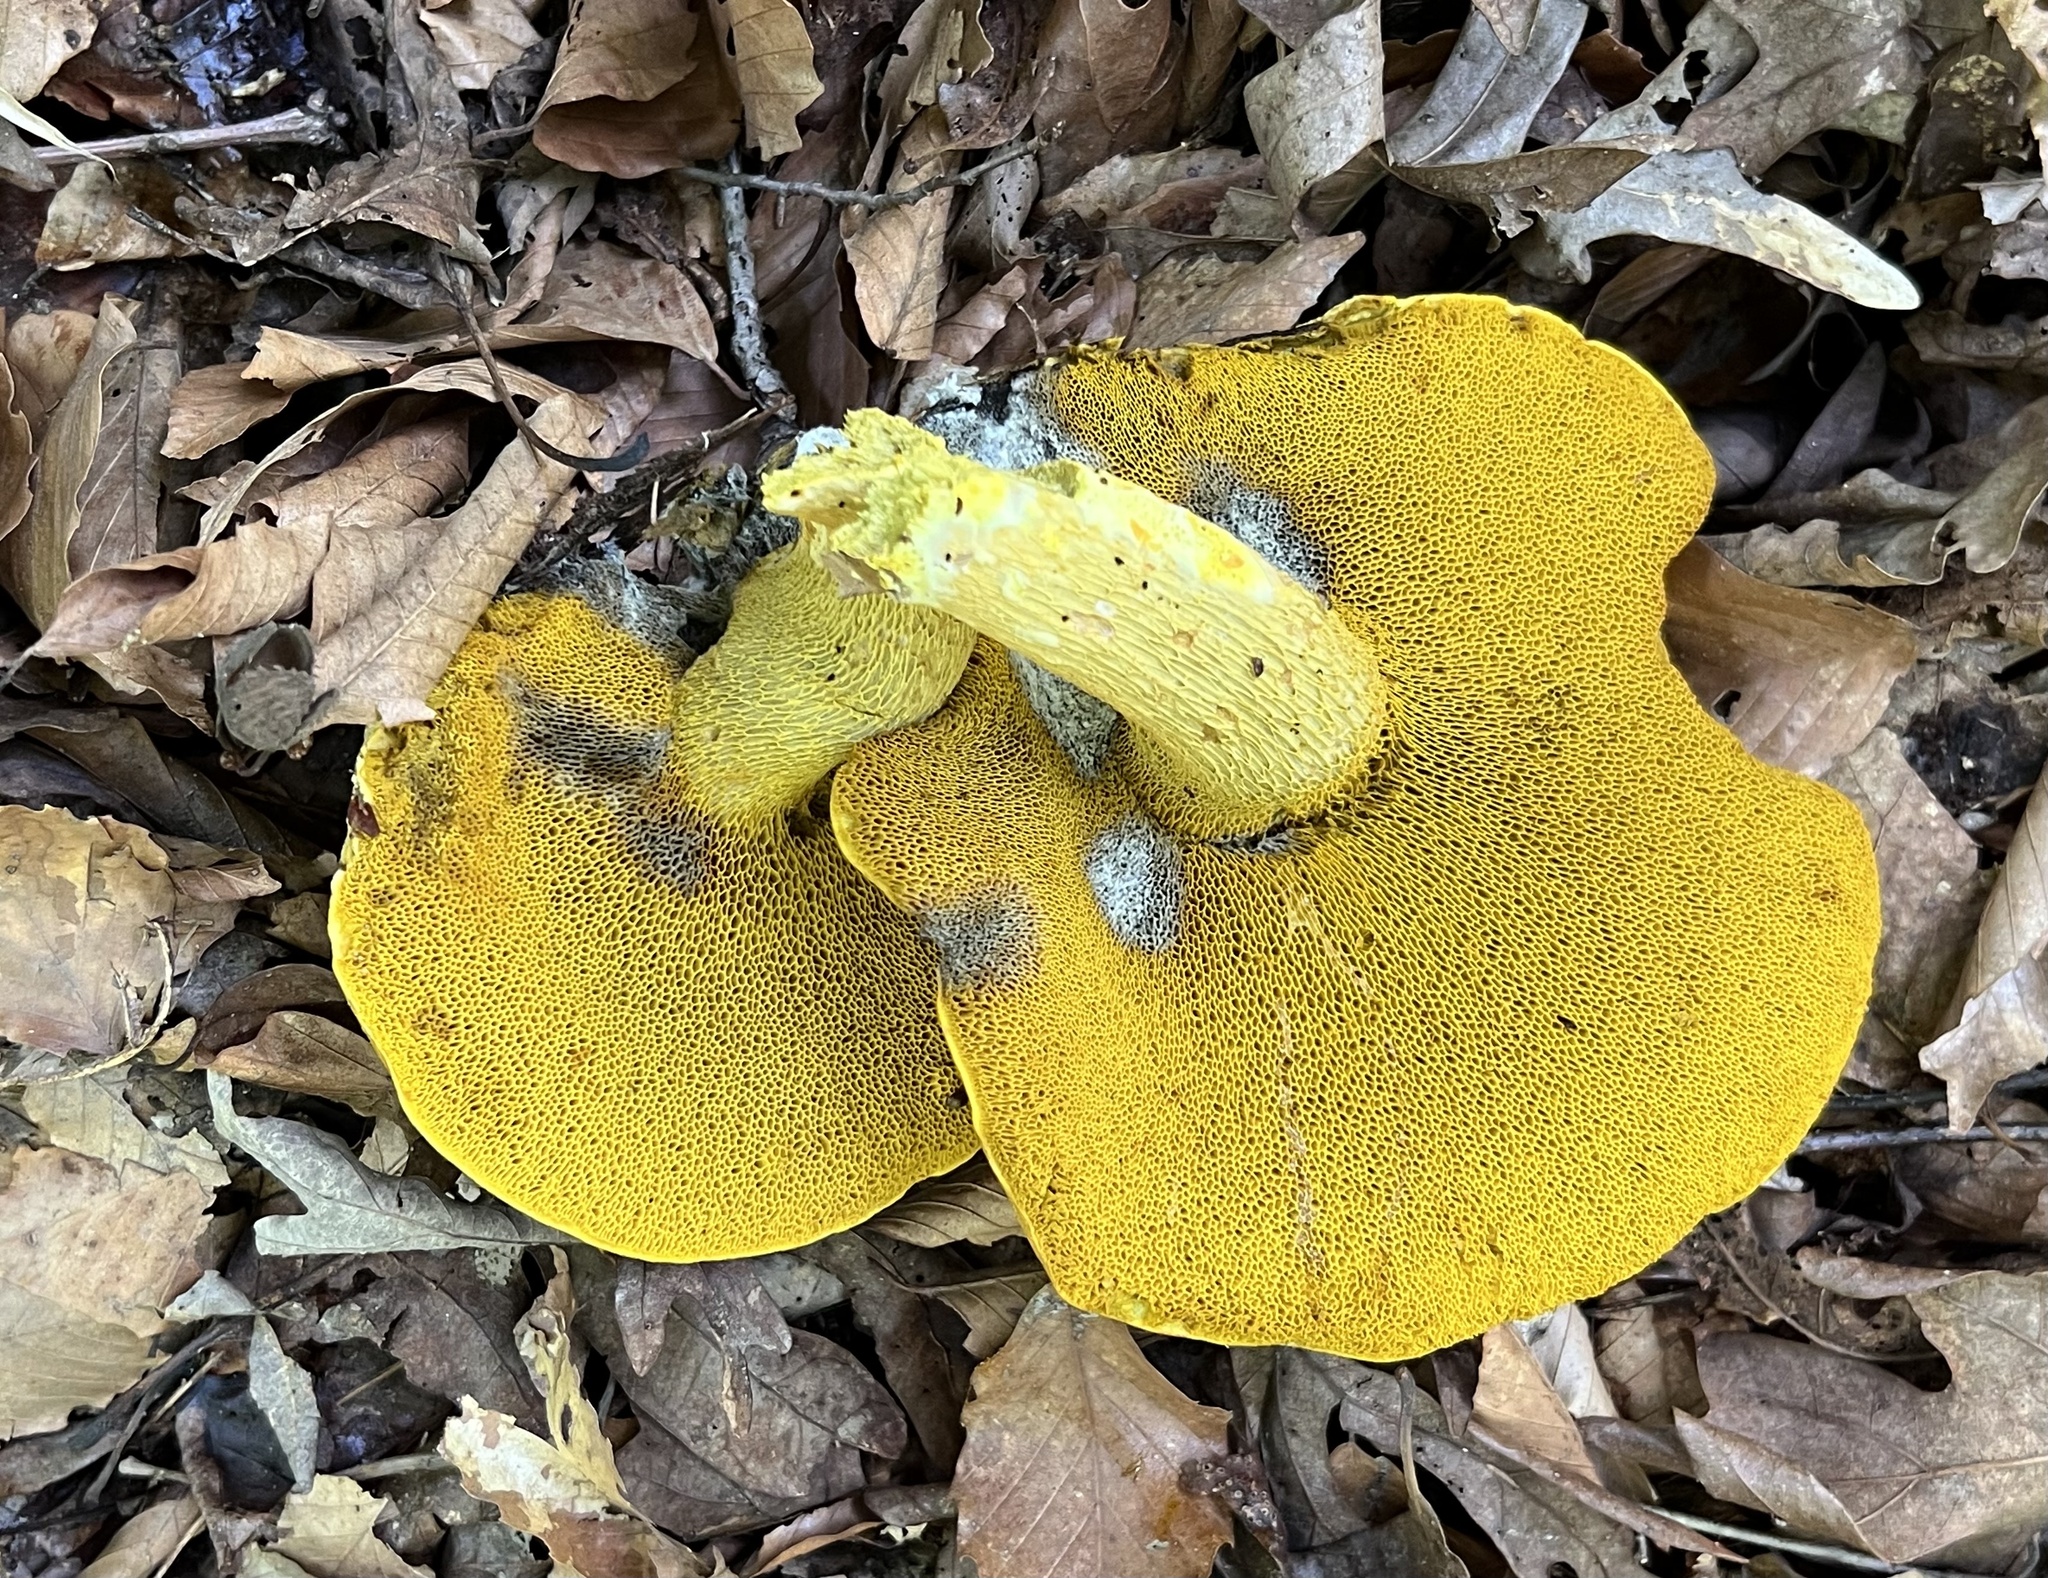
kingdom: Fungi
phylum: Basidiomycota
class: Agaricomycetes
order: Boletales
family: Boletaceae
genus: Retiboletus
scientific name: Retiboletus ornatipes
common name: Ornate-stalked bolete
